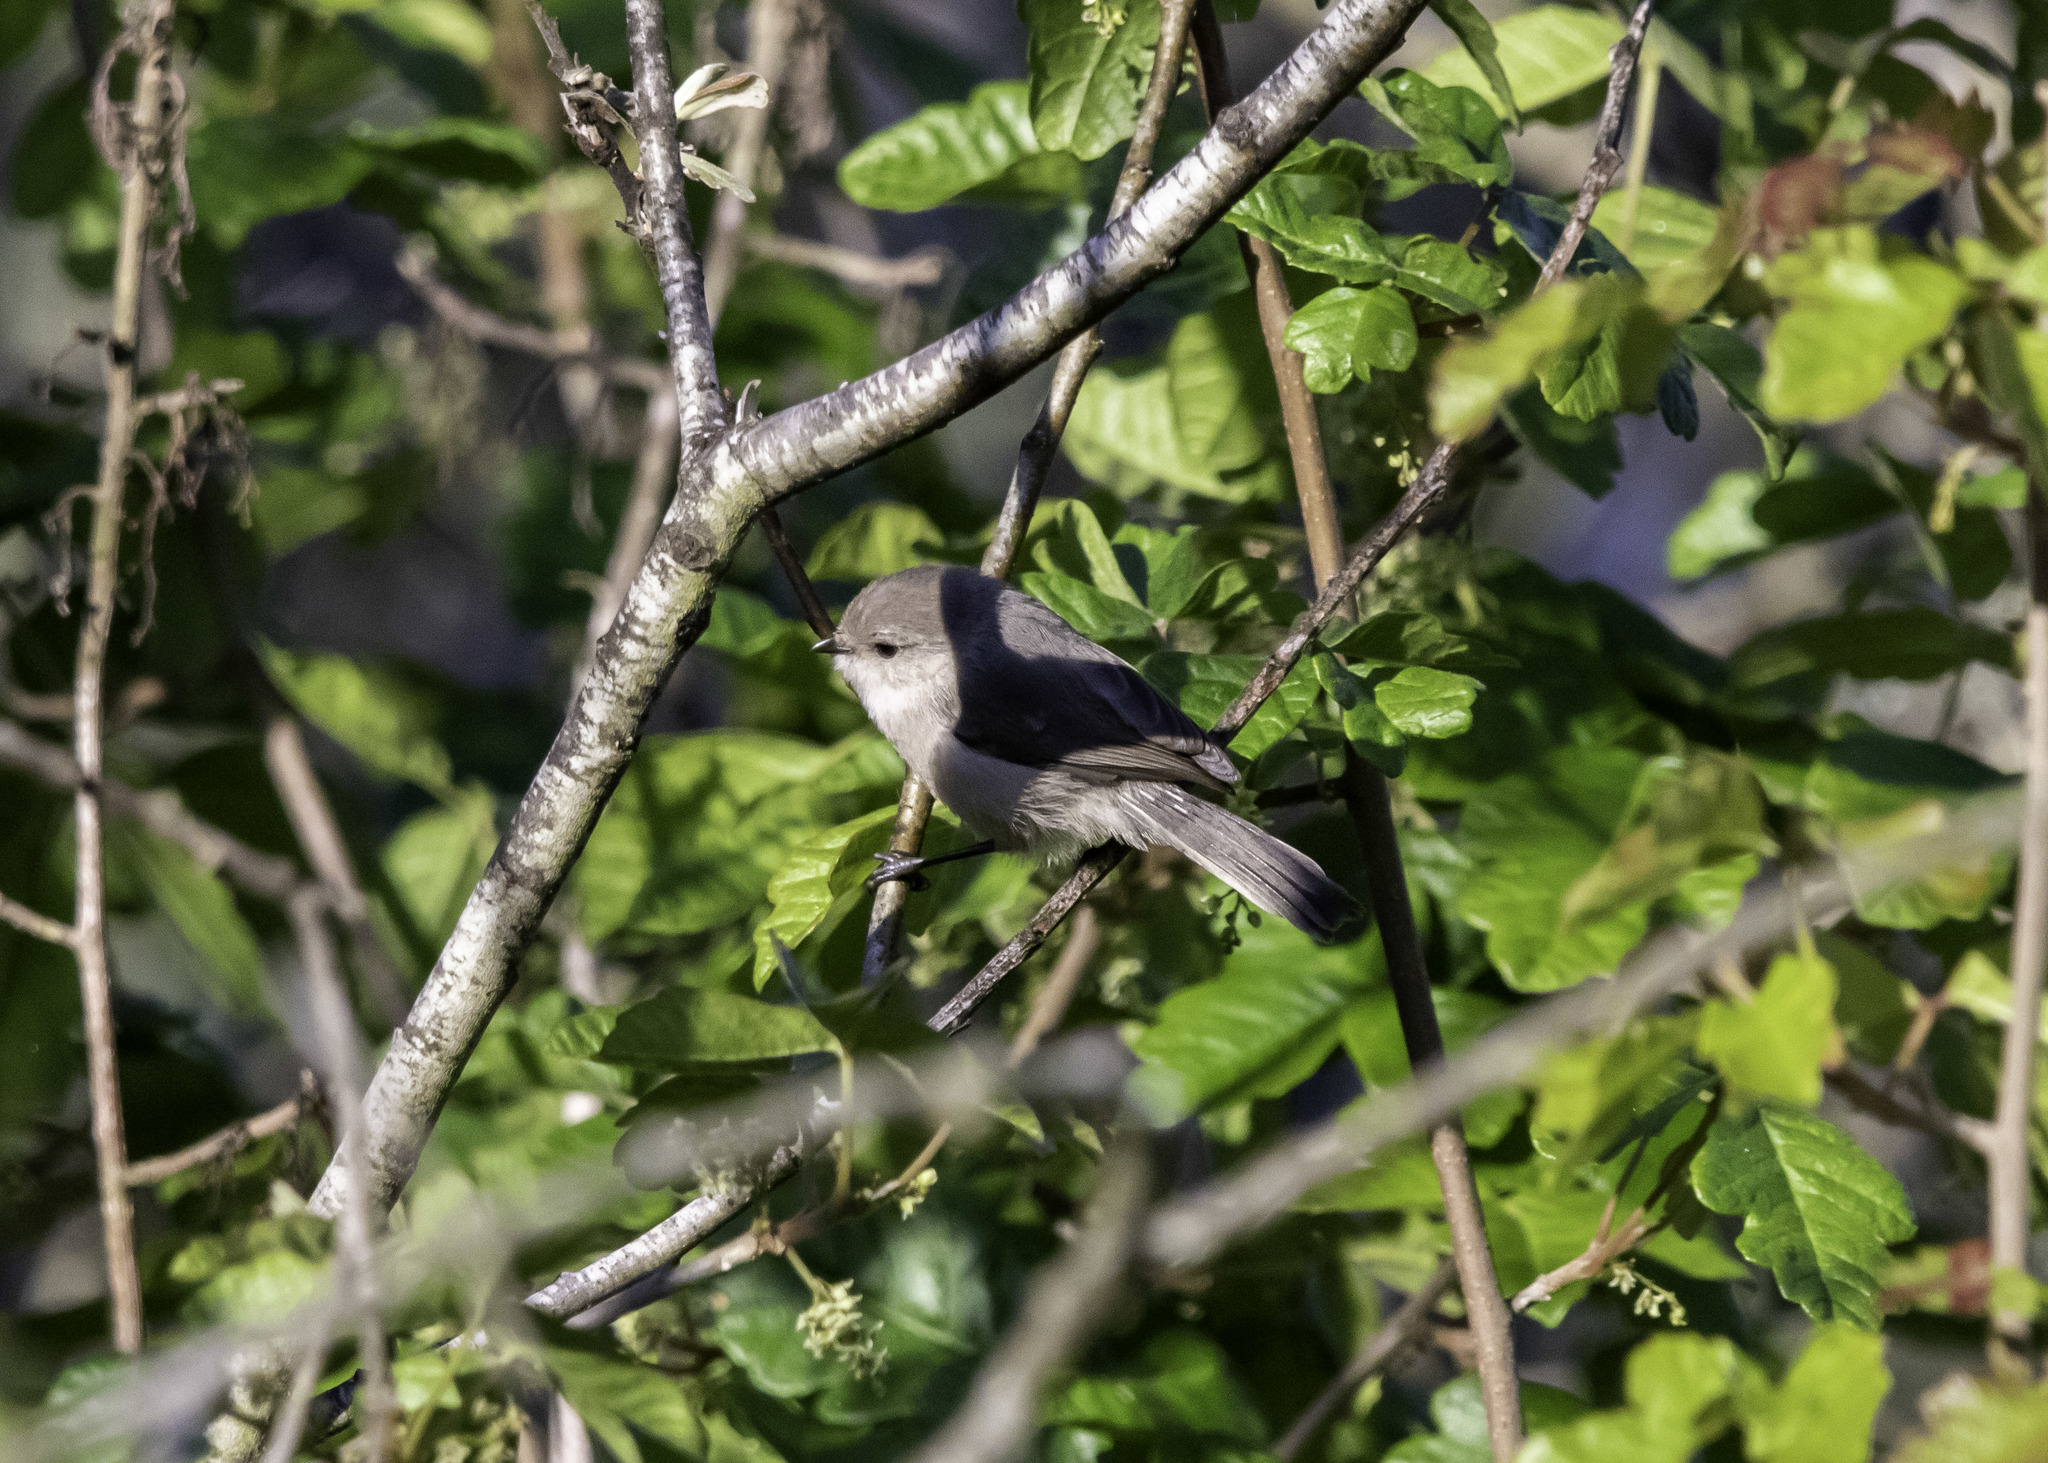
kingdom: Animalia
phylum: Chordata
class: Aves
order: Passeriformes
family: Aegithalidae
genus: Psaltriparus
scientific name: Psaltriparus minimus
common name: American bushtit
